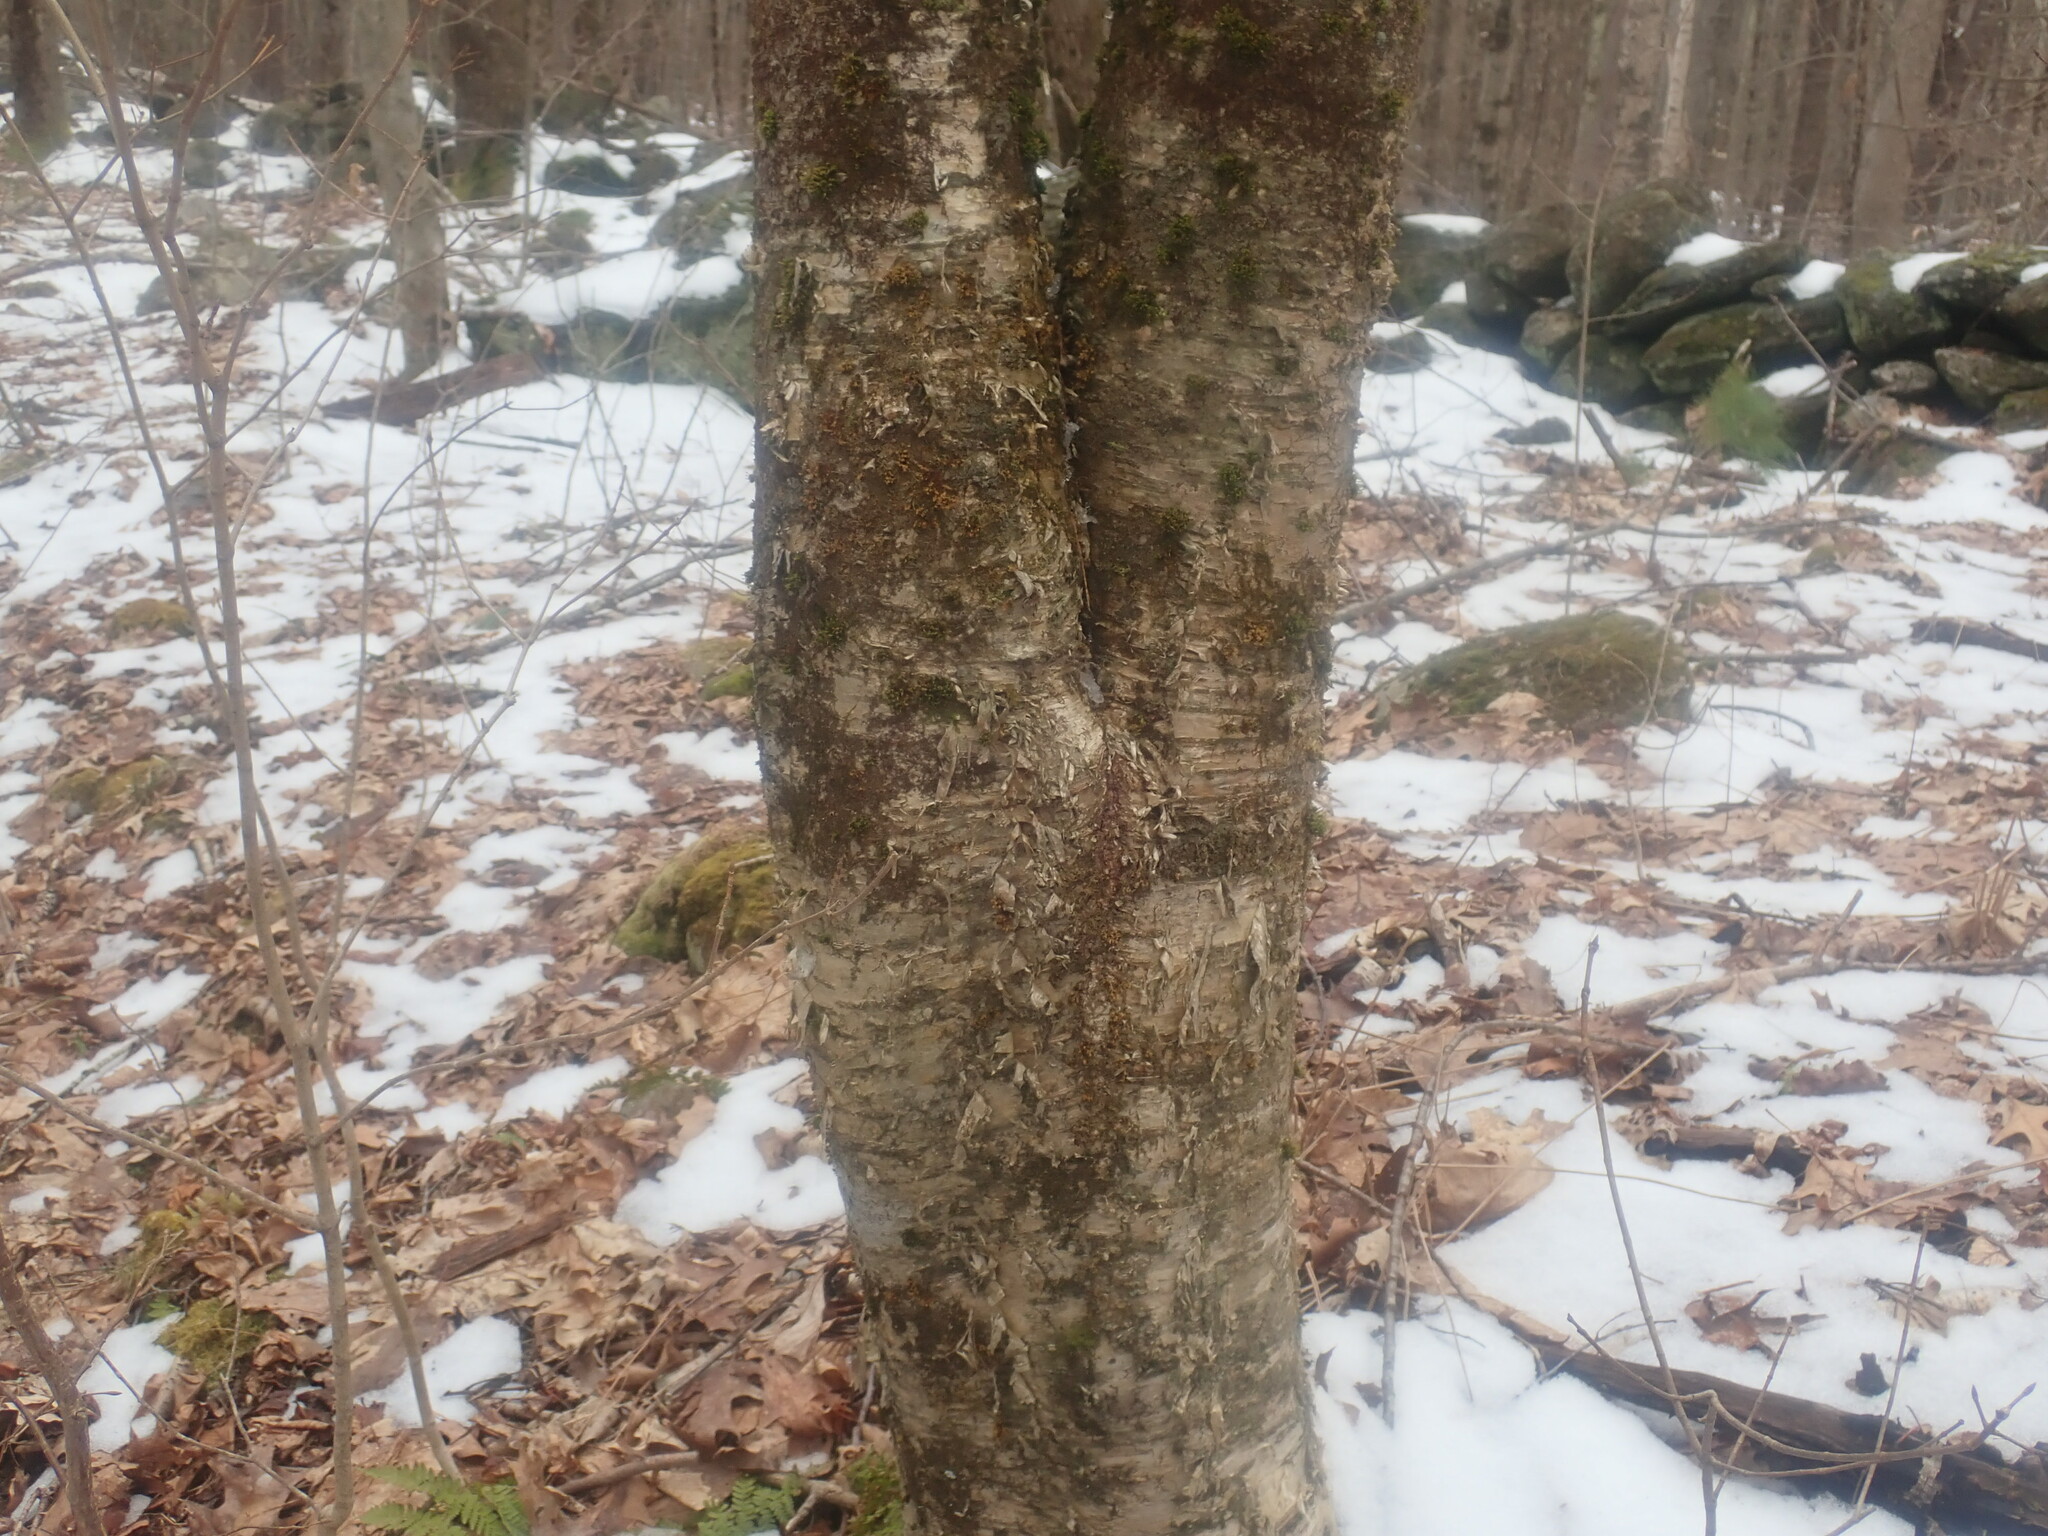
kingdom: Plantae
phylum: Tracheophyta
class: Magnoliopsida
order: Fagales
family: Betulaceae
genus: Betula
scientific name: Betula alleghaniensis
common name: Yellow birch
